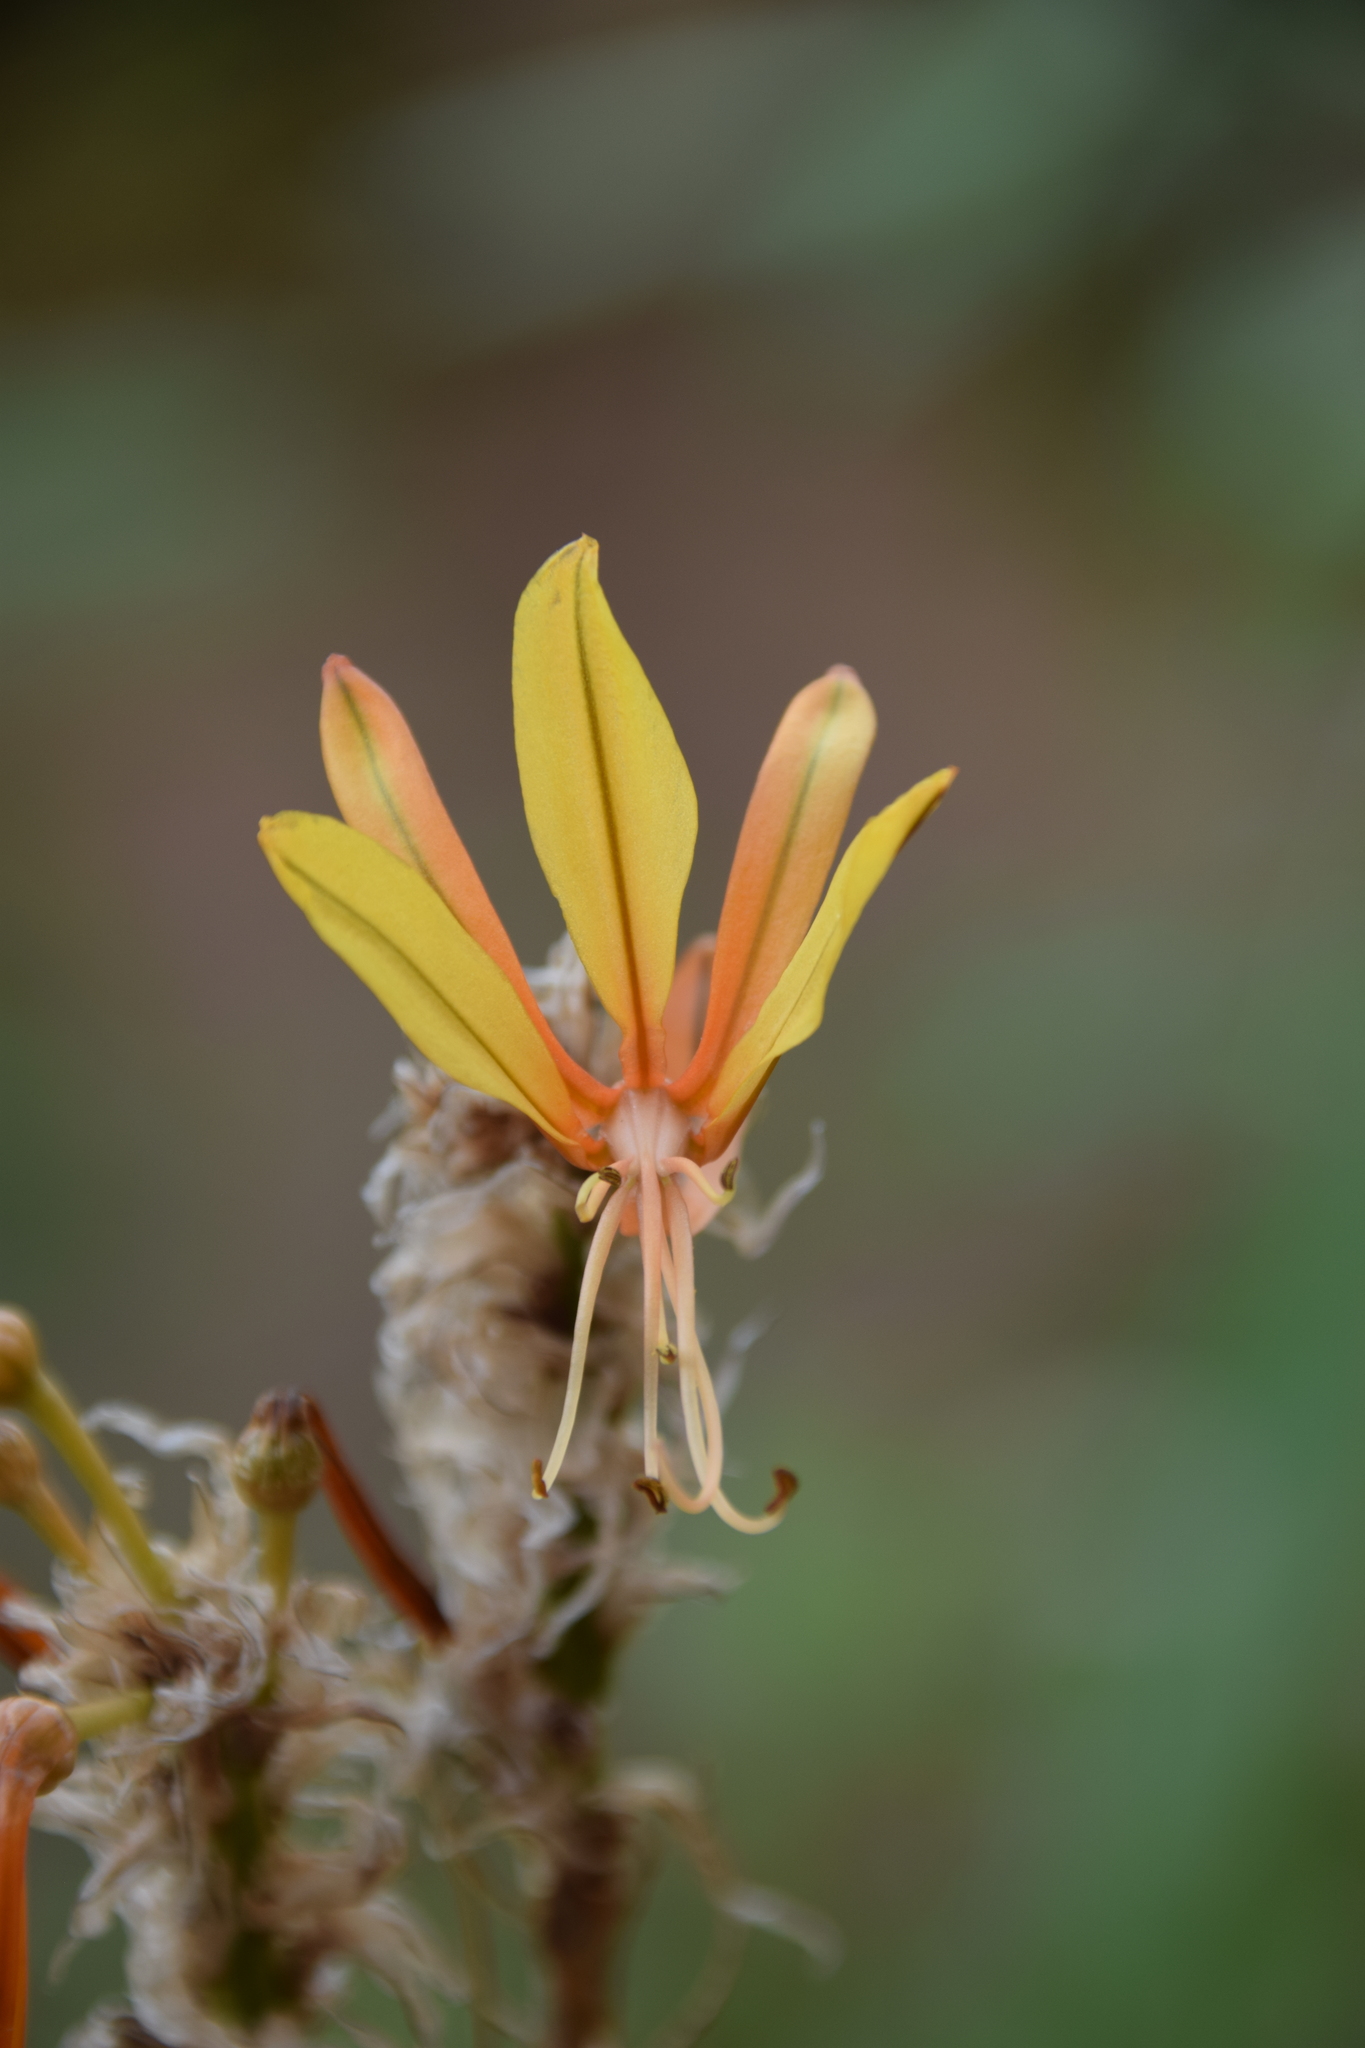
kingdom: Plantae
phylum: Tracheophyta
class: Liliopsida
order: Asparagales
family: Asphodelaceae
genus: Asphodeline
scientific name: Asphodeline lutea
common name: Yellow asphodel
